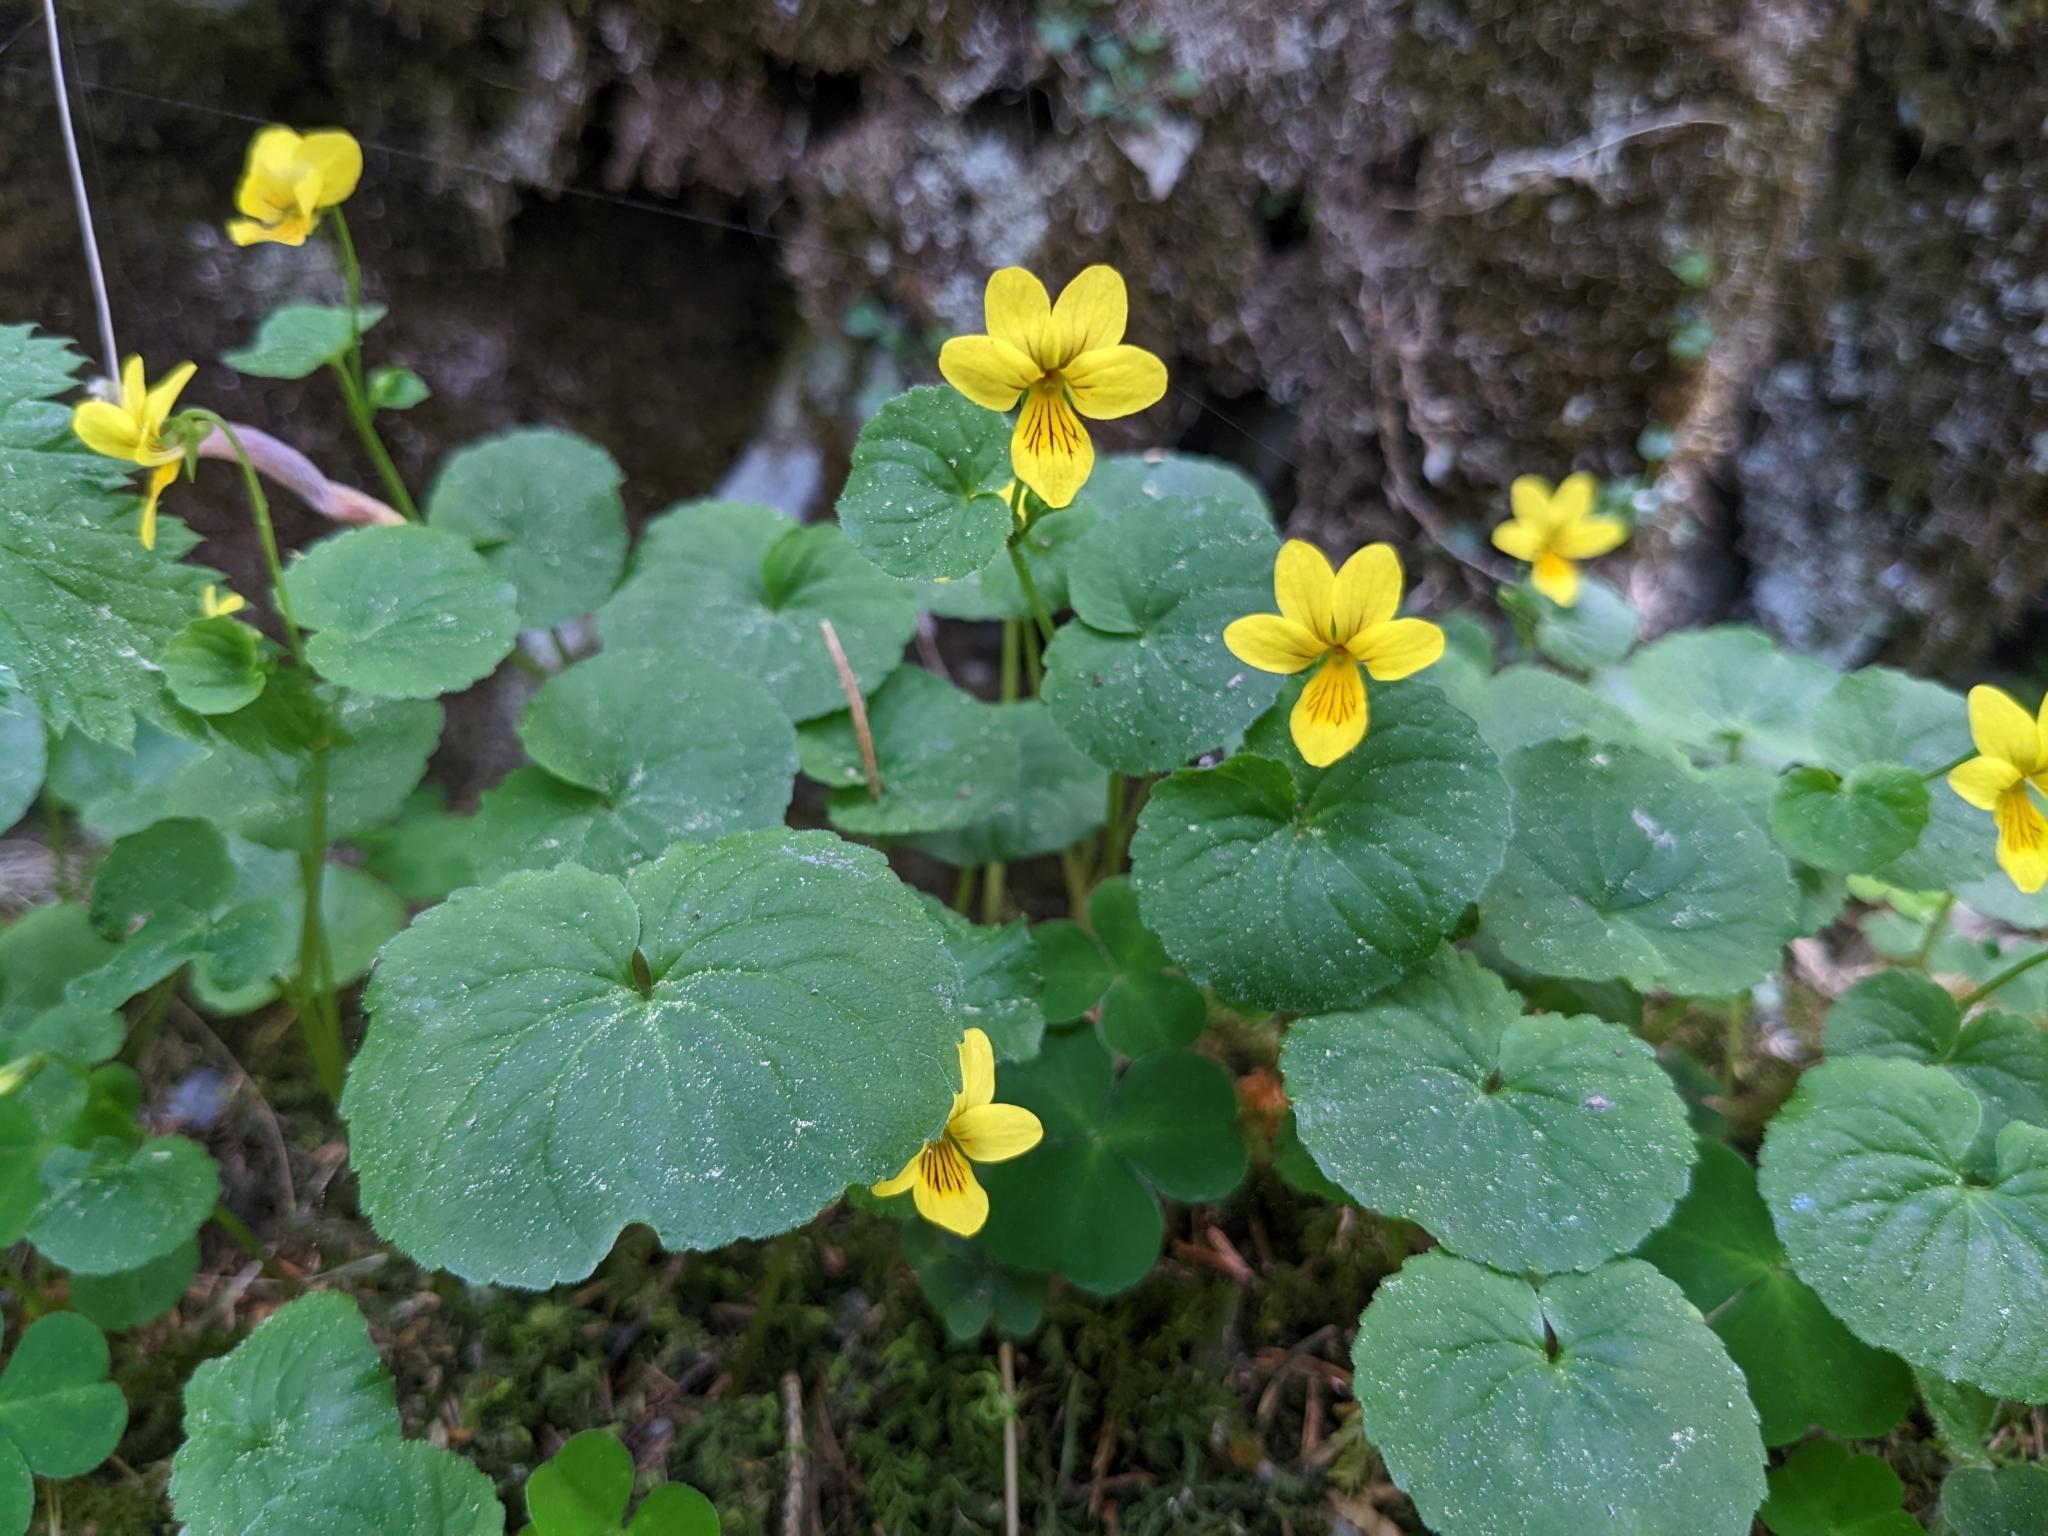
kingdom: Plantae
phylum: Tracheophyta
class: Magnoliopsida
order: Malpighiales
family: Violaceae
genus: Viola
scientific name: Viola biflora
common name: Alpine yellow violet
